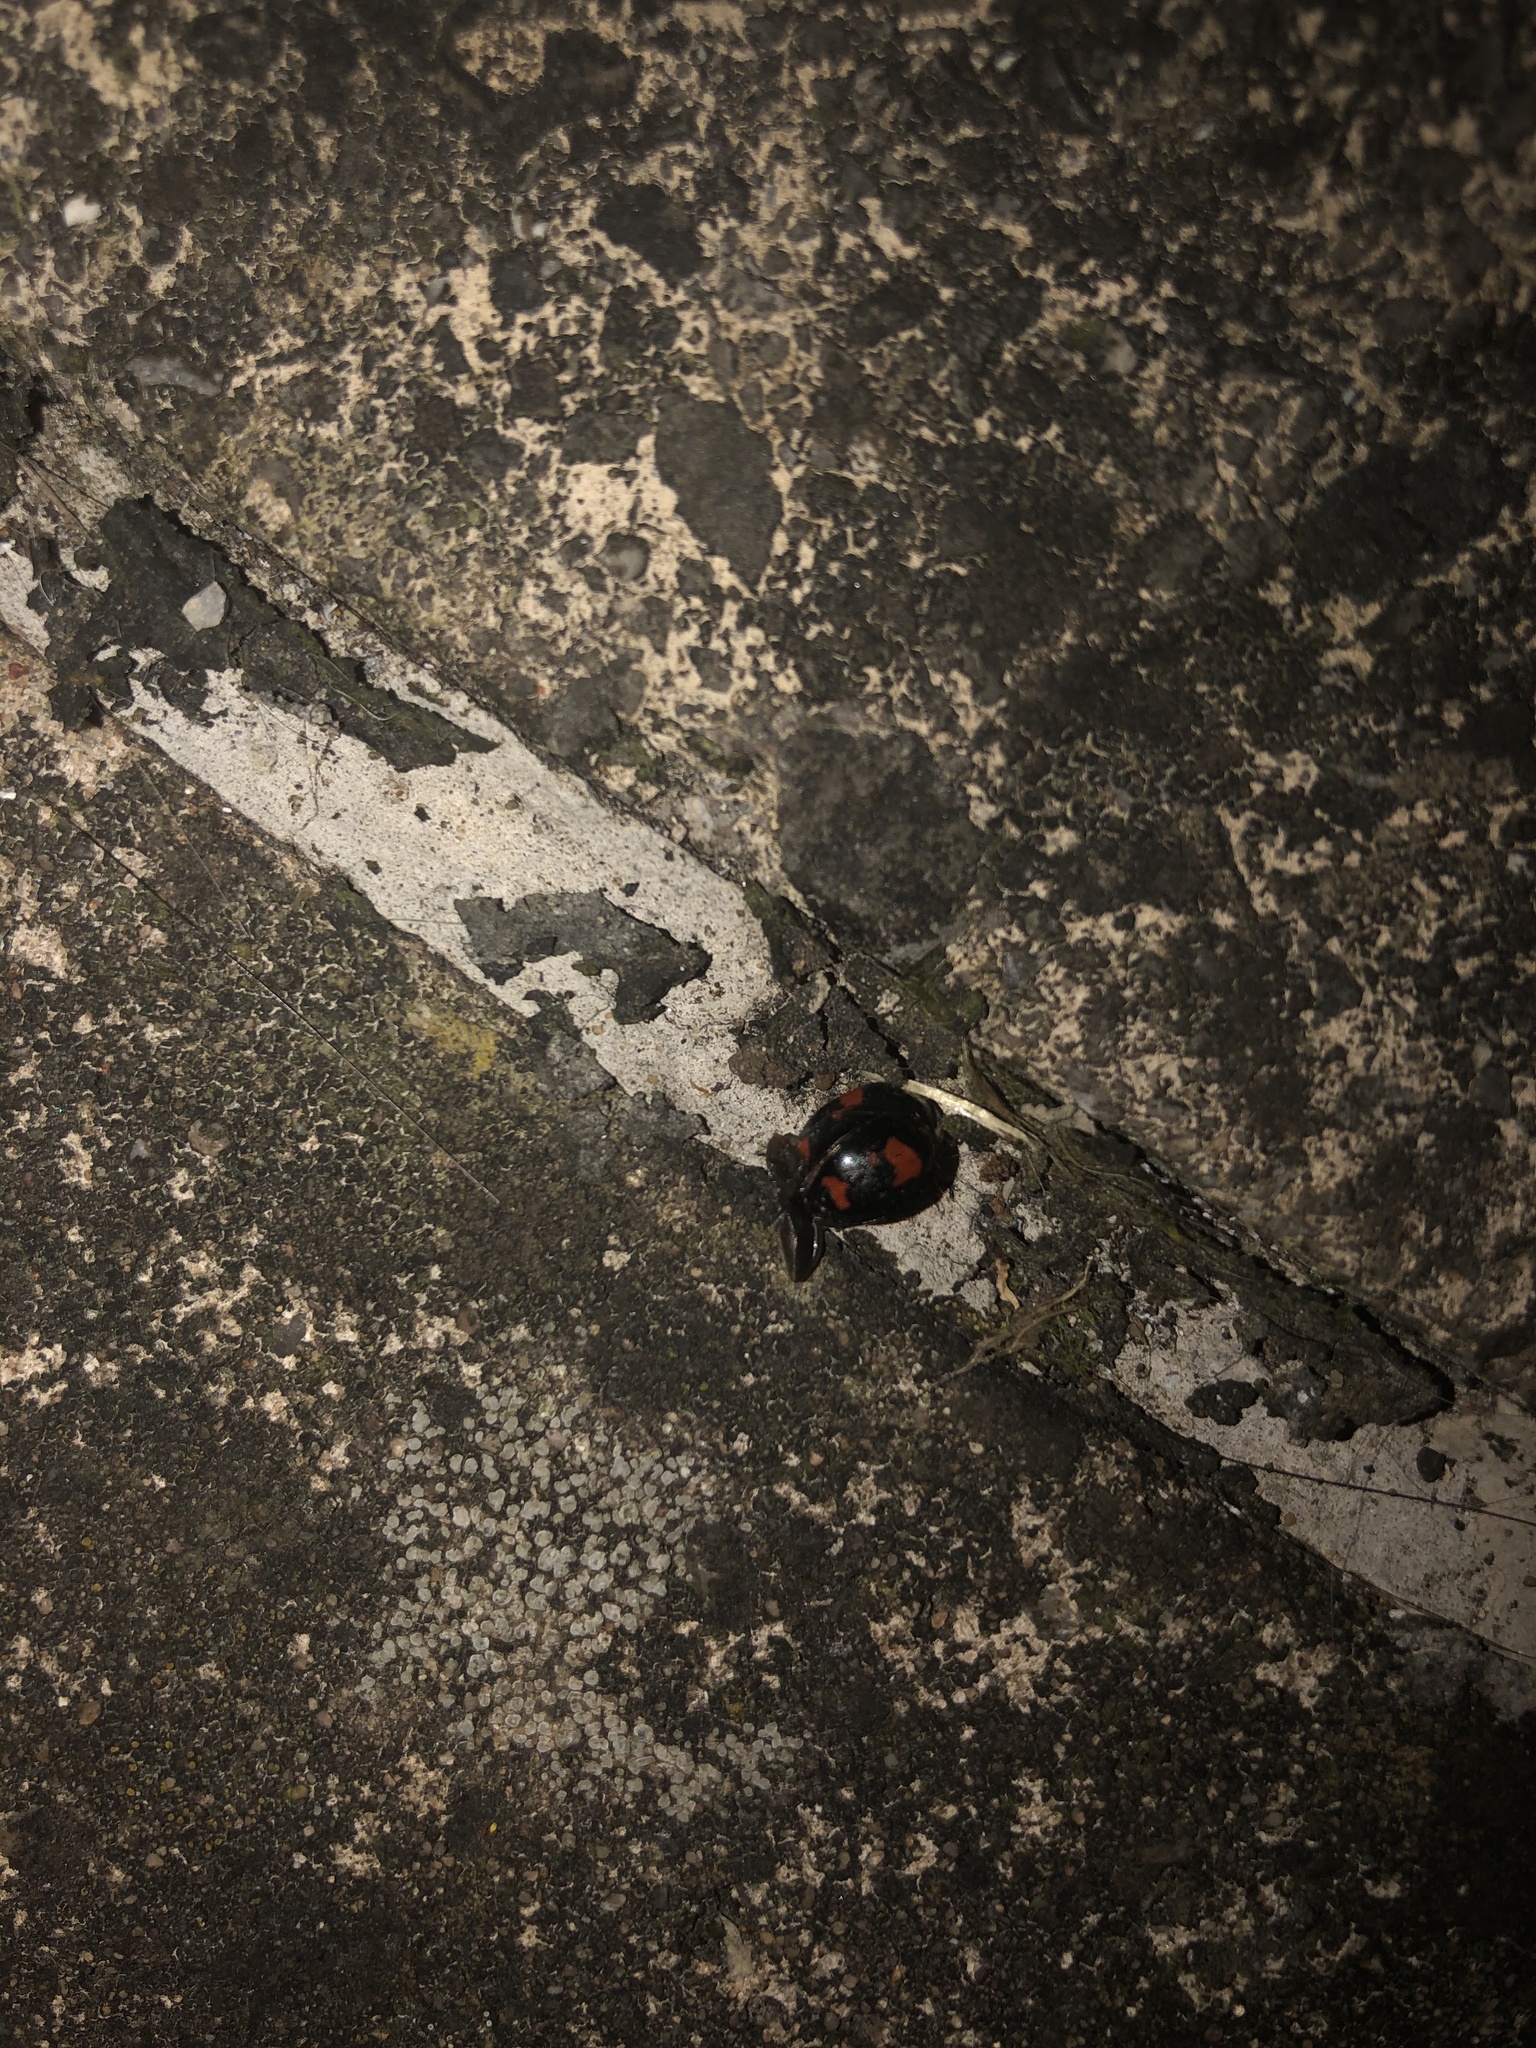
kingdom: Animalia
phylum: Arthropoda
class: Insecta
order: Coleoptera
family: Coccinellidae
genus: Harmonia
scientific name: Harmonia axyridis
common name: Harlequin ladybird
